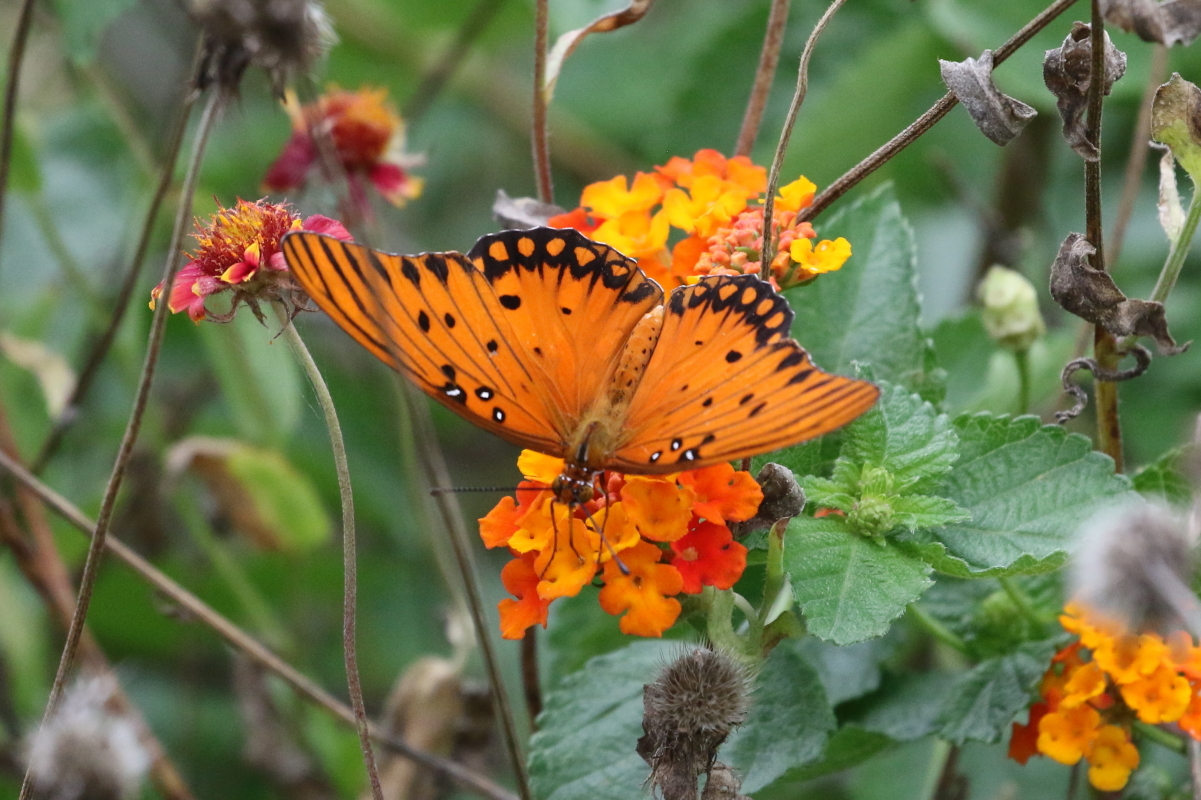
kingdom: Animalia
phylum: Arthropoda
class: Insecta
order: Lepidoptera
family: Nymphalidae
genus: Dione
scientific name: Dione vanillae
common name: Gulf fritillary
